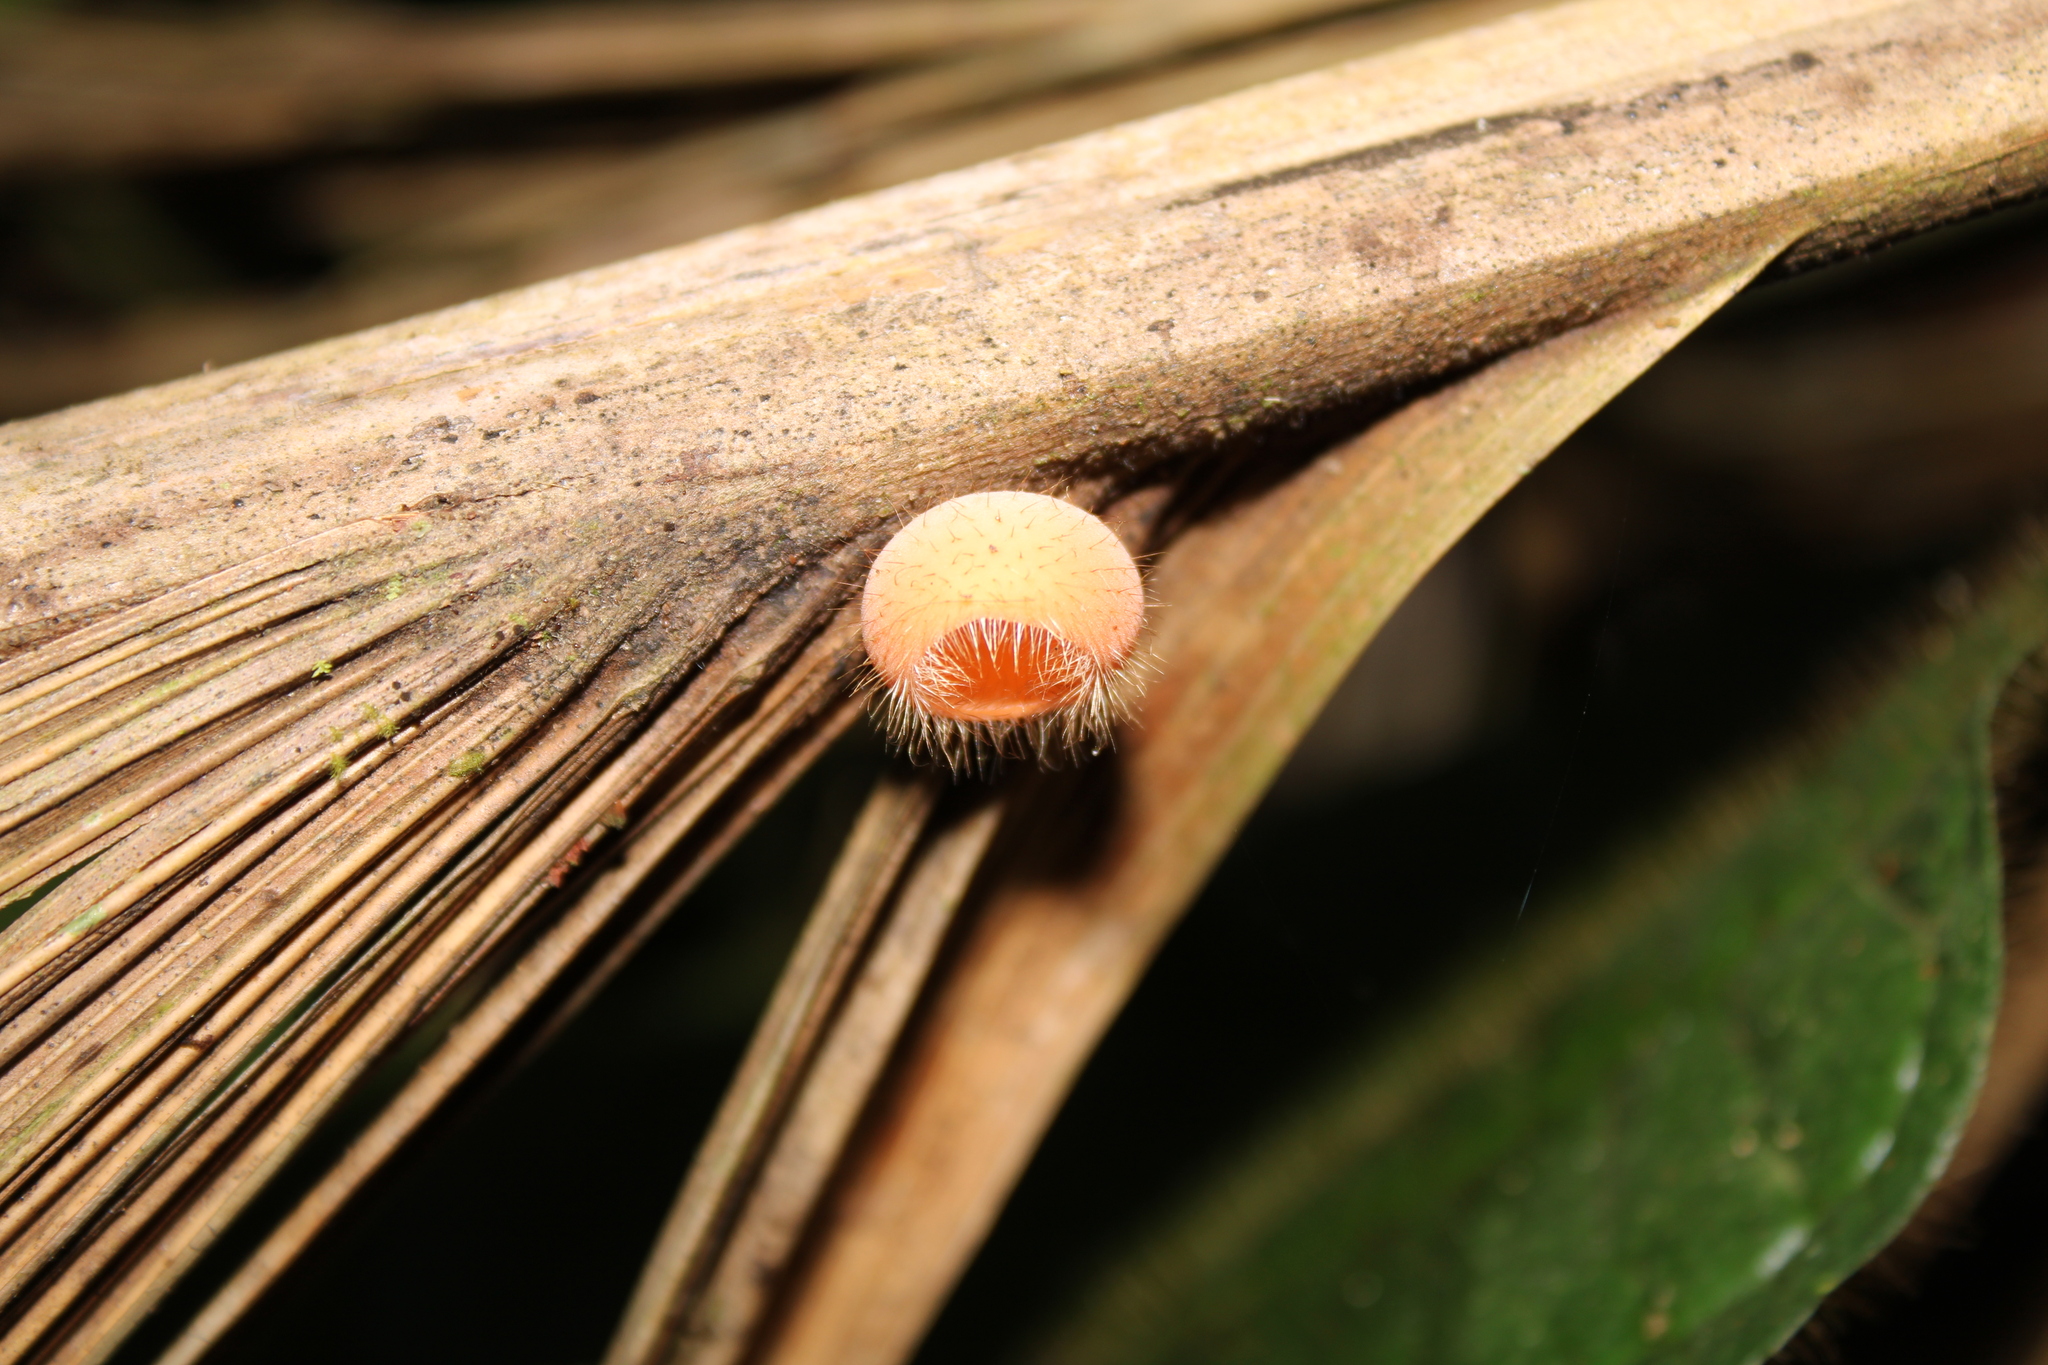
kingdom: Fungi
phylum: Ascomycota
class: Pezizomycetes
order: Pezizales
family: Sarcoscyphaceae
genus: Cookeina
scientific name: Cookeina tricholoma
